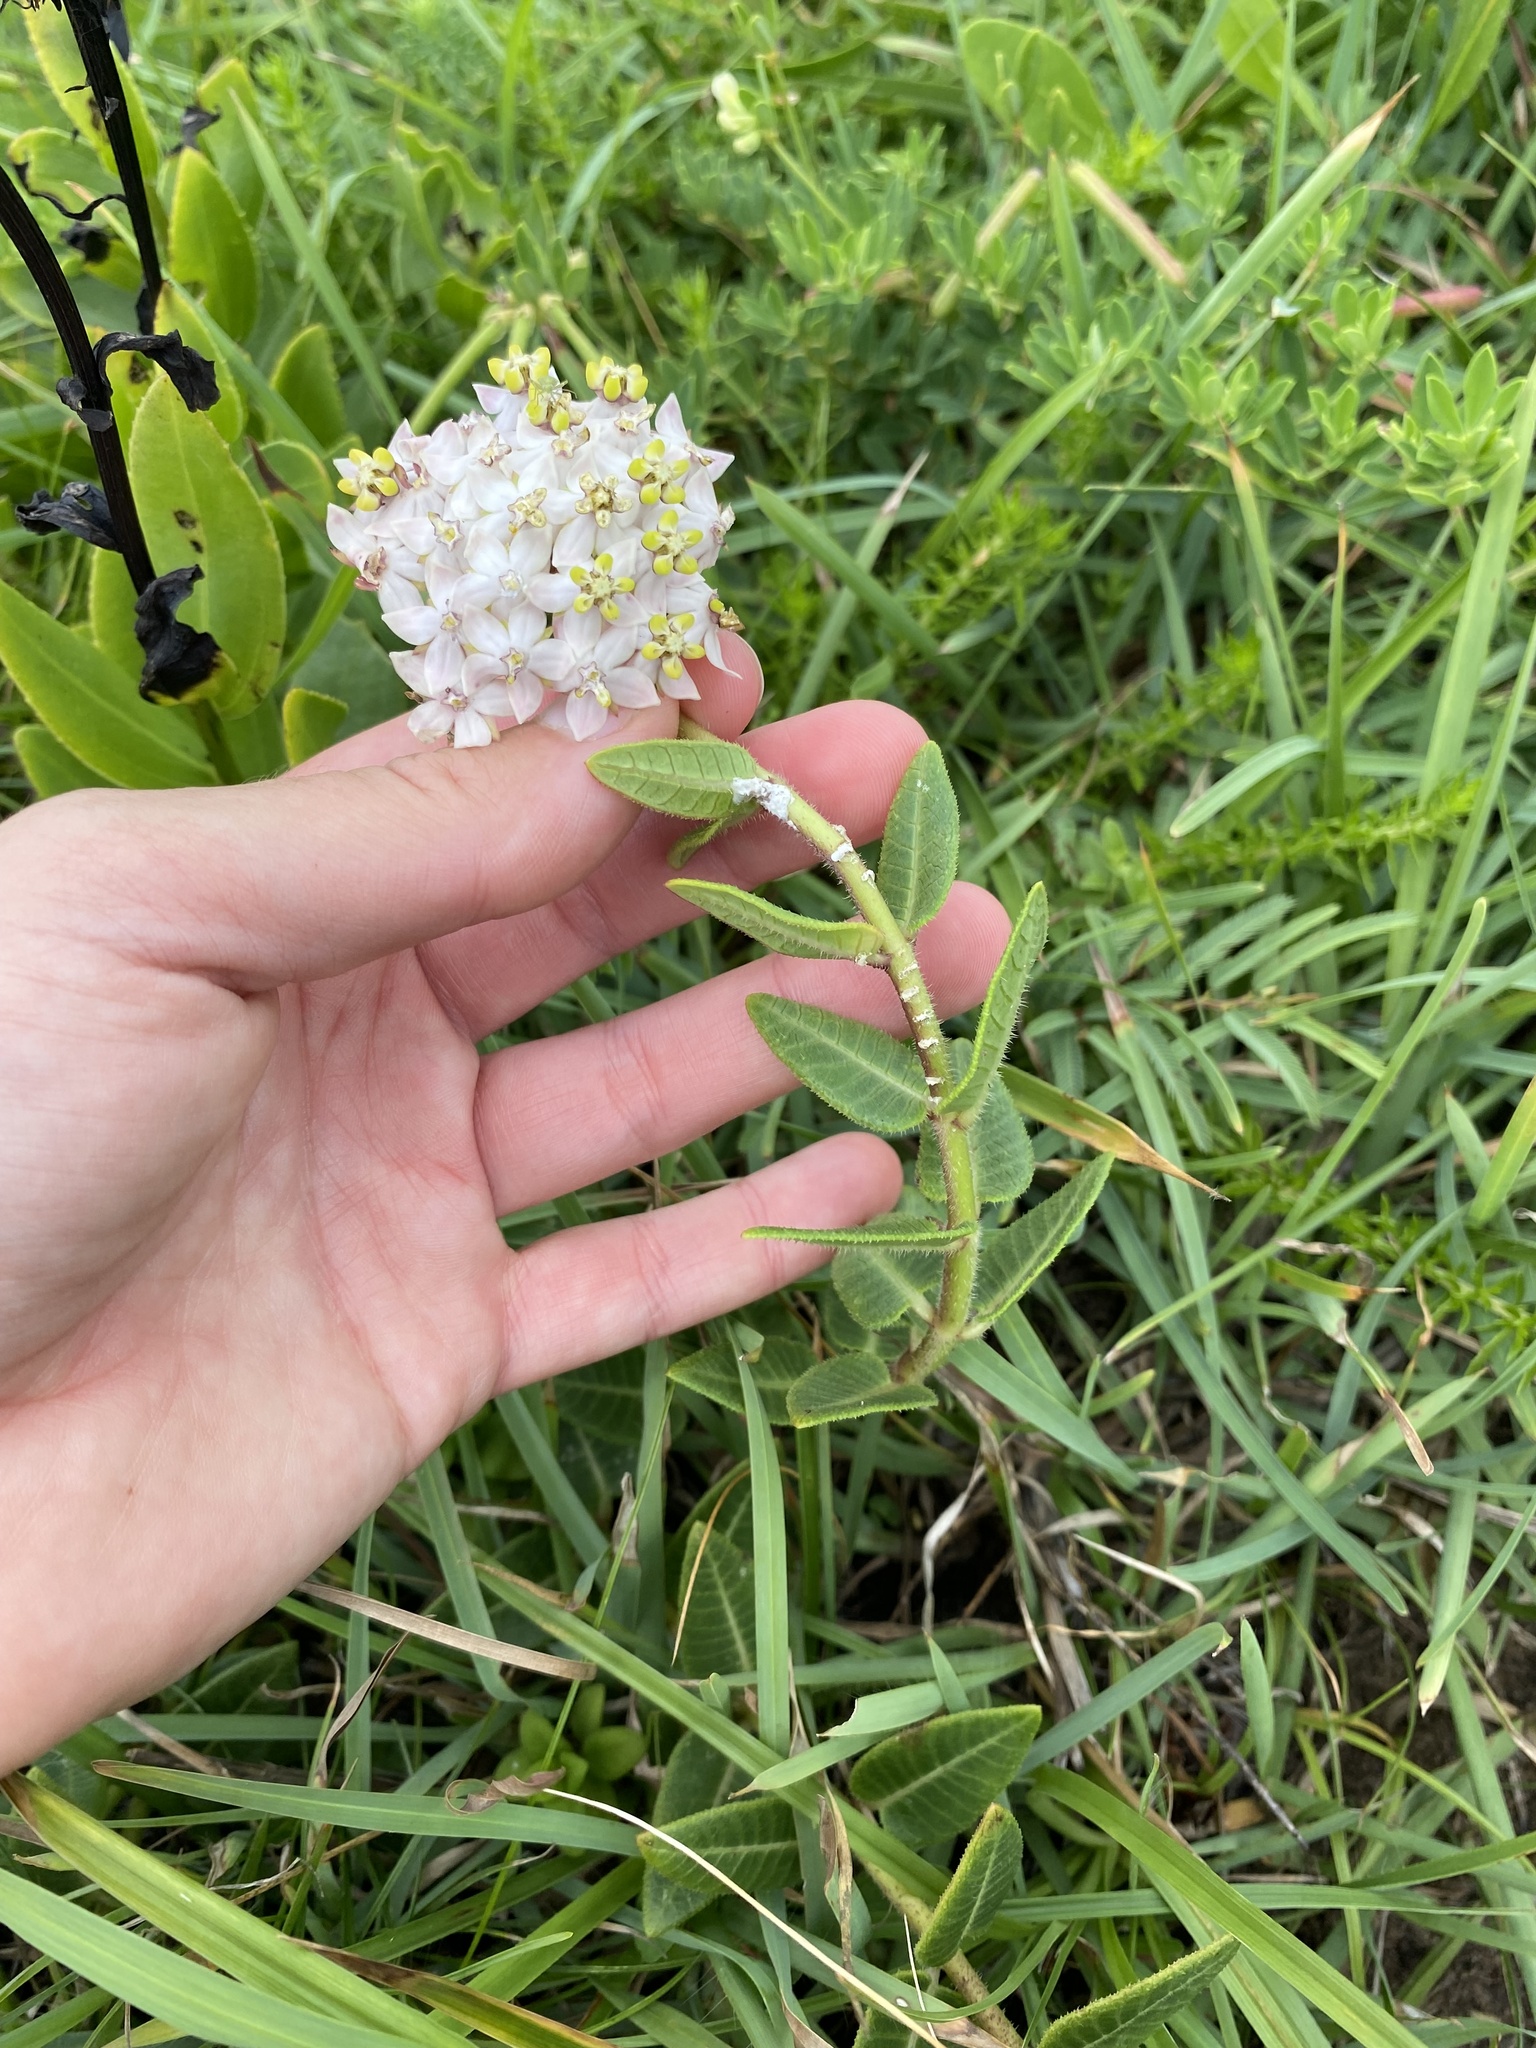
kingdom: Plantae
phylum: Tracheophyta
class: Magnoliopsida
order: Gentianales
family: Apocynaceae
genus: Asclepias
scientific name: Asclepias albens
